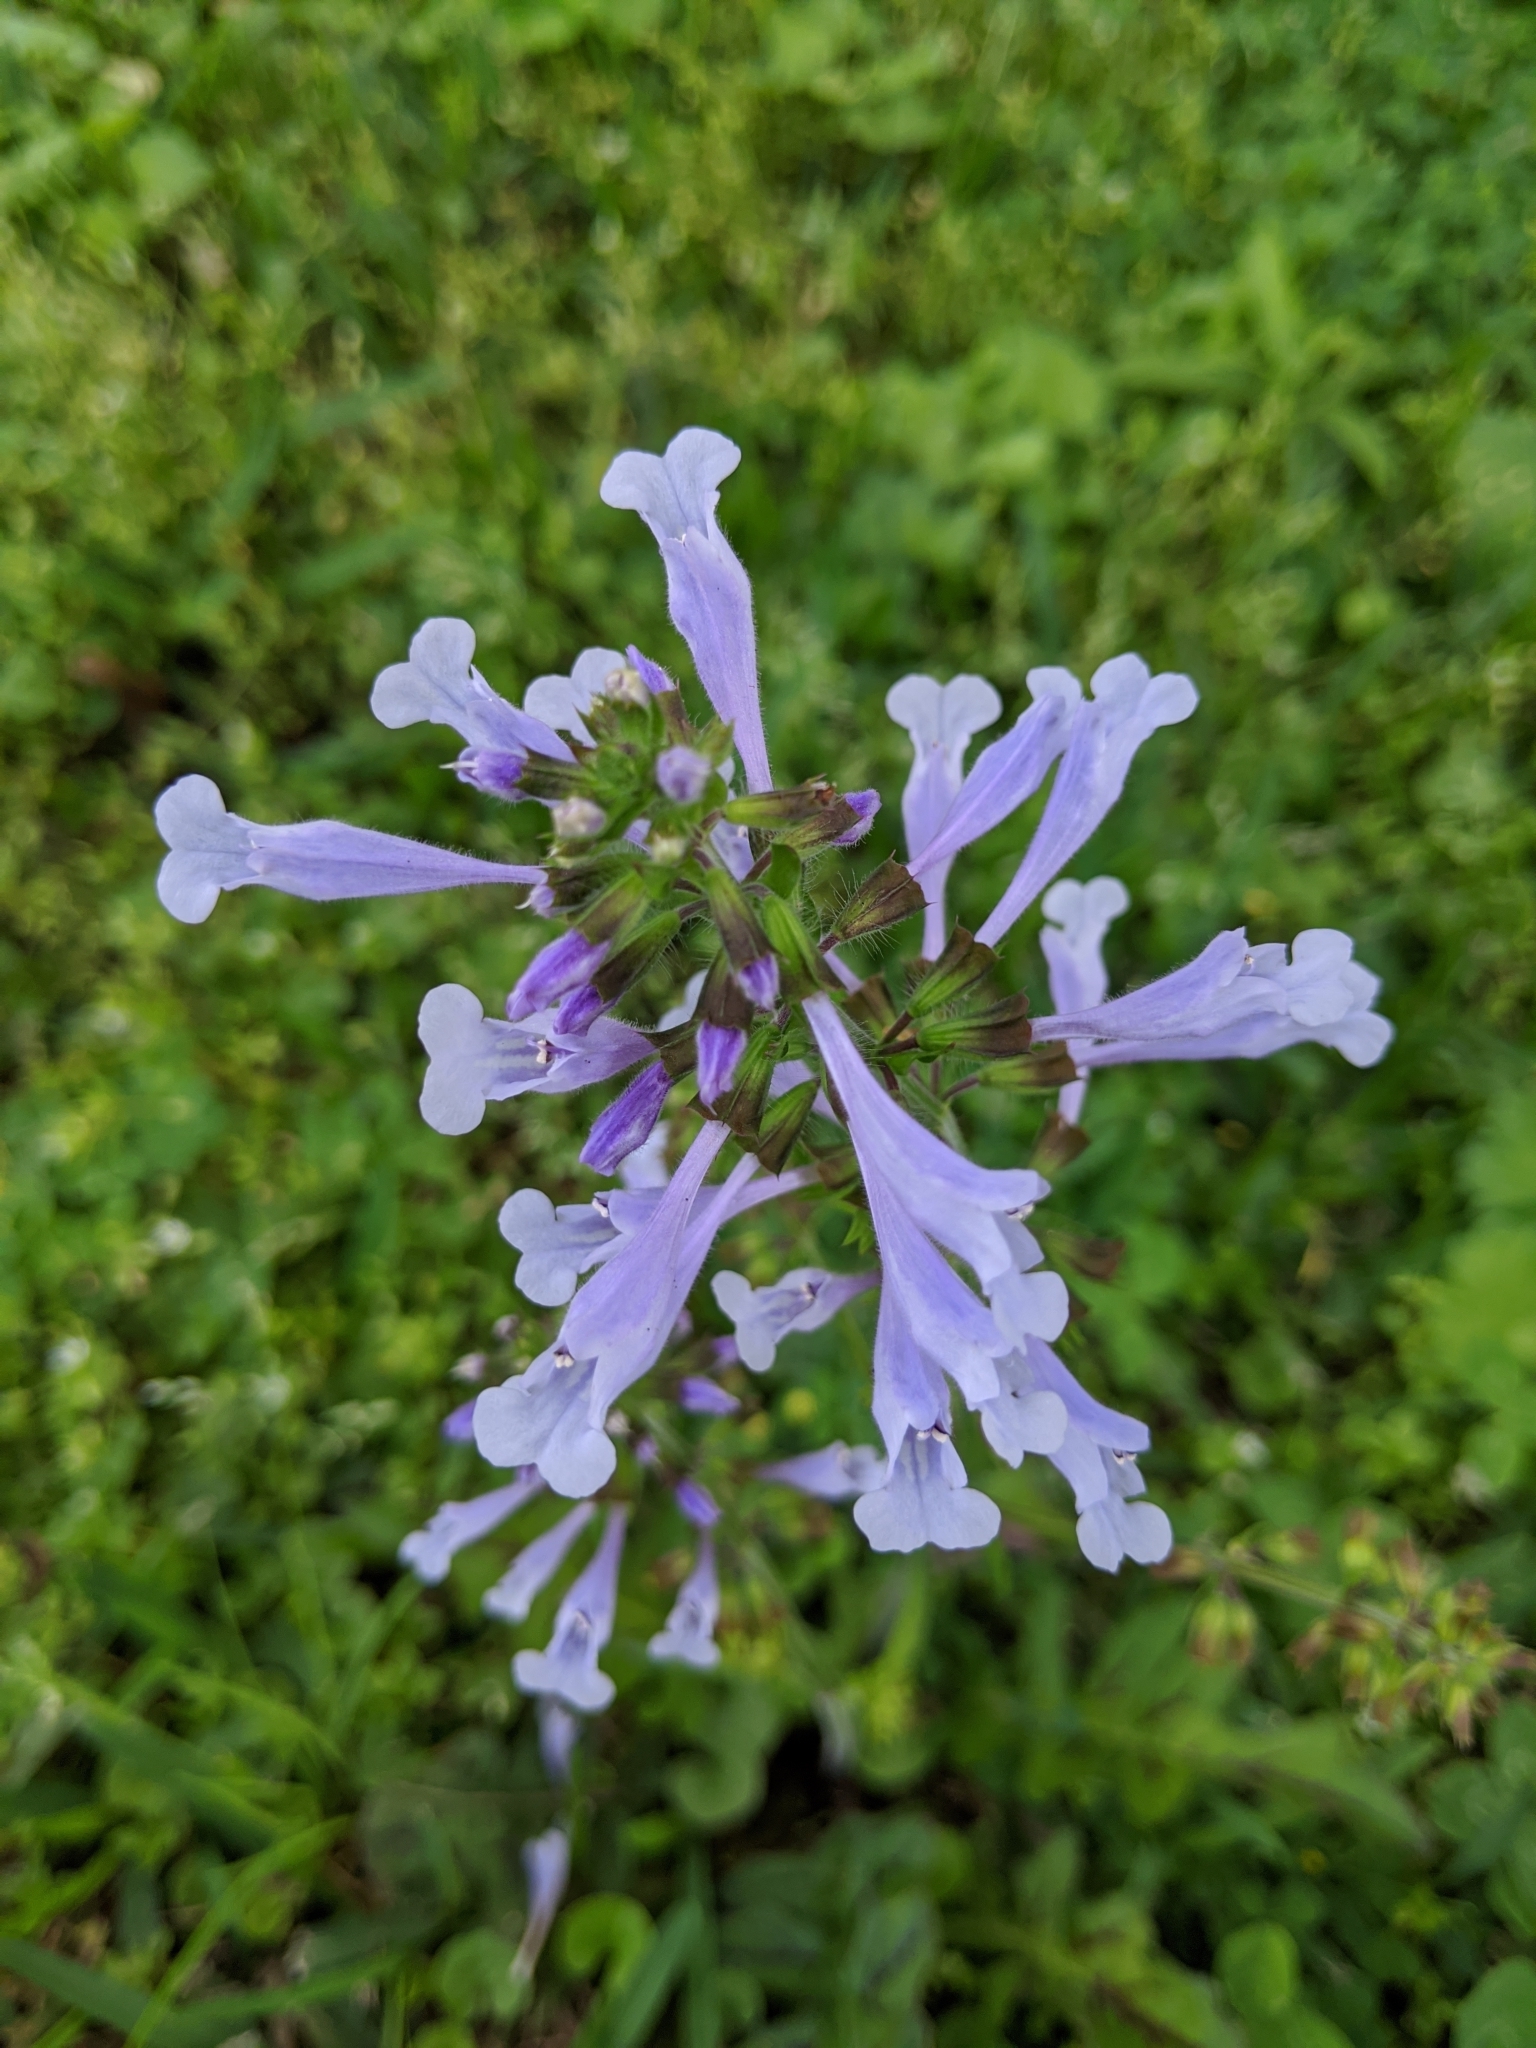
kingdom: Plantae
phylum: Tracheophyta
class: Magnoliopsida
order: Lamiales
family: Lamiaceae
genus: Salvia
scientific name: Salvia lyrata
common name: Cancerweed
